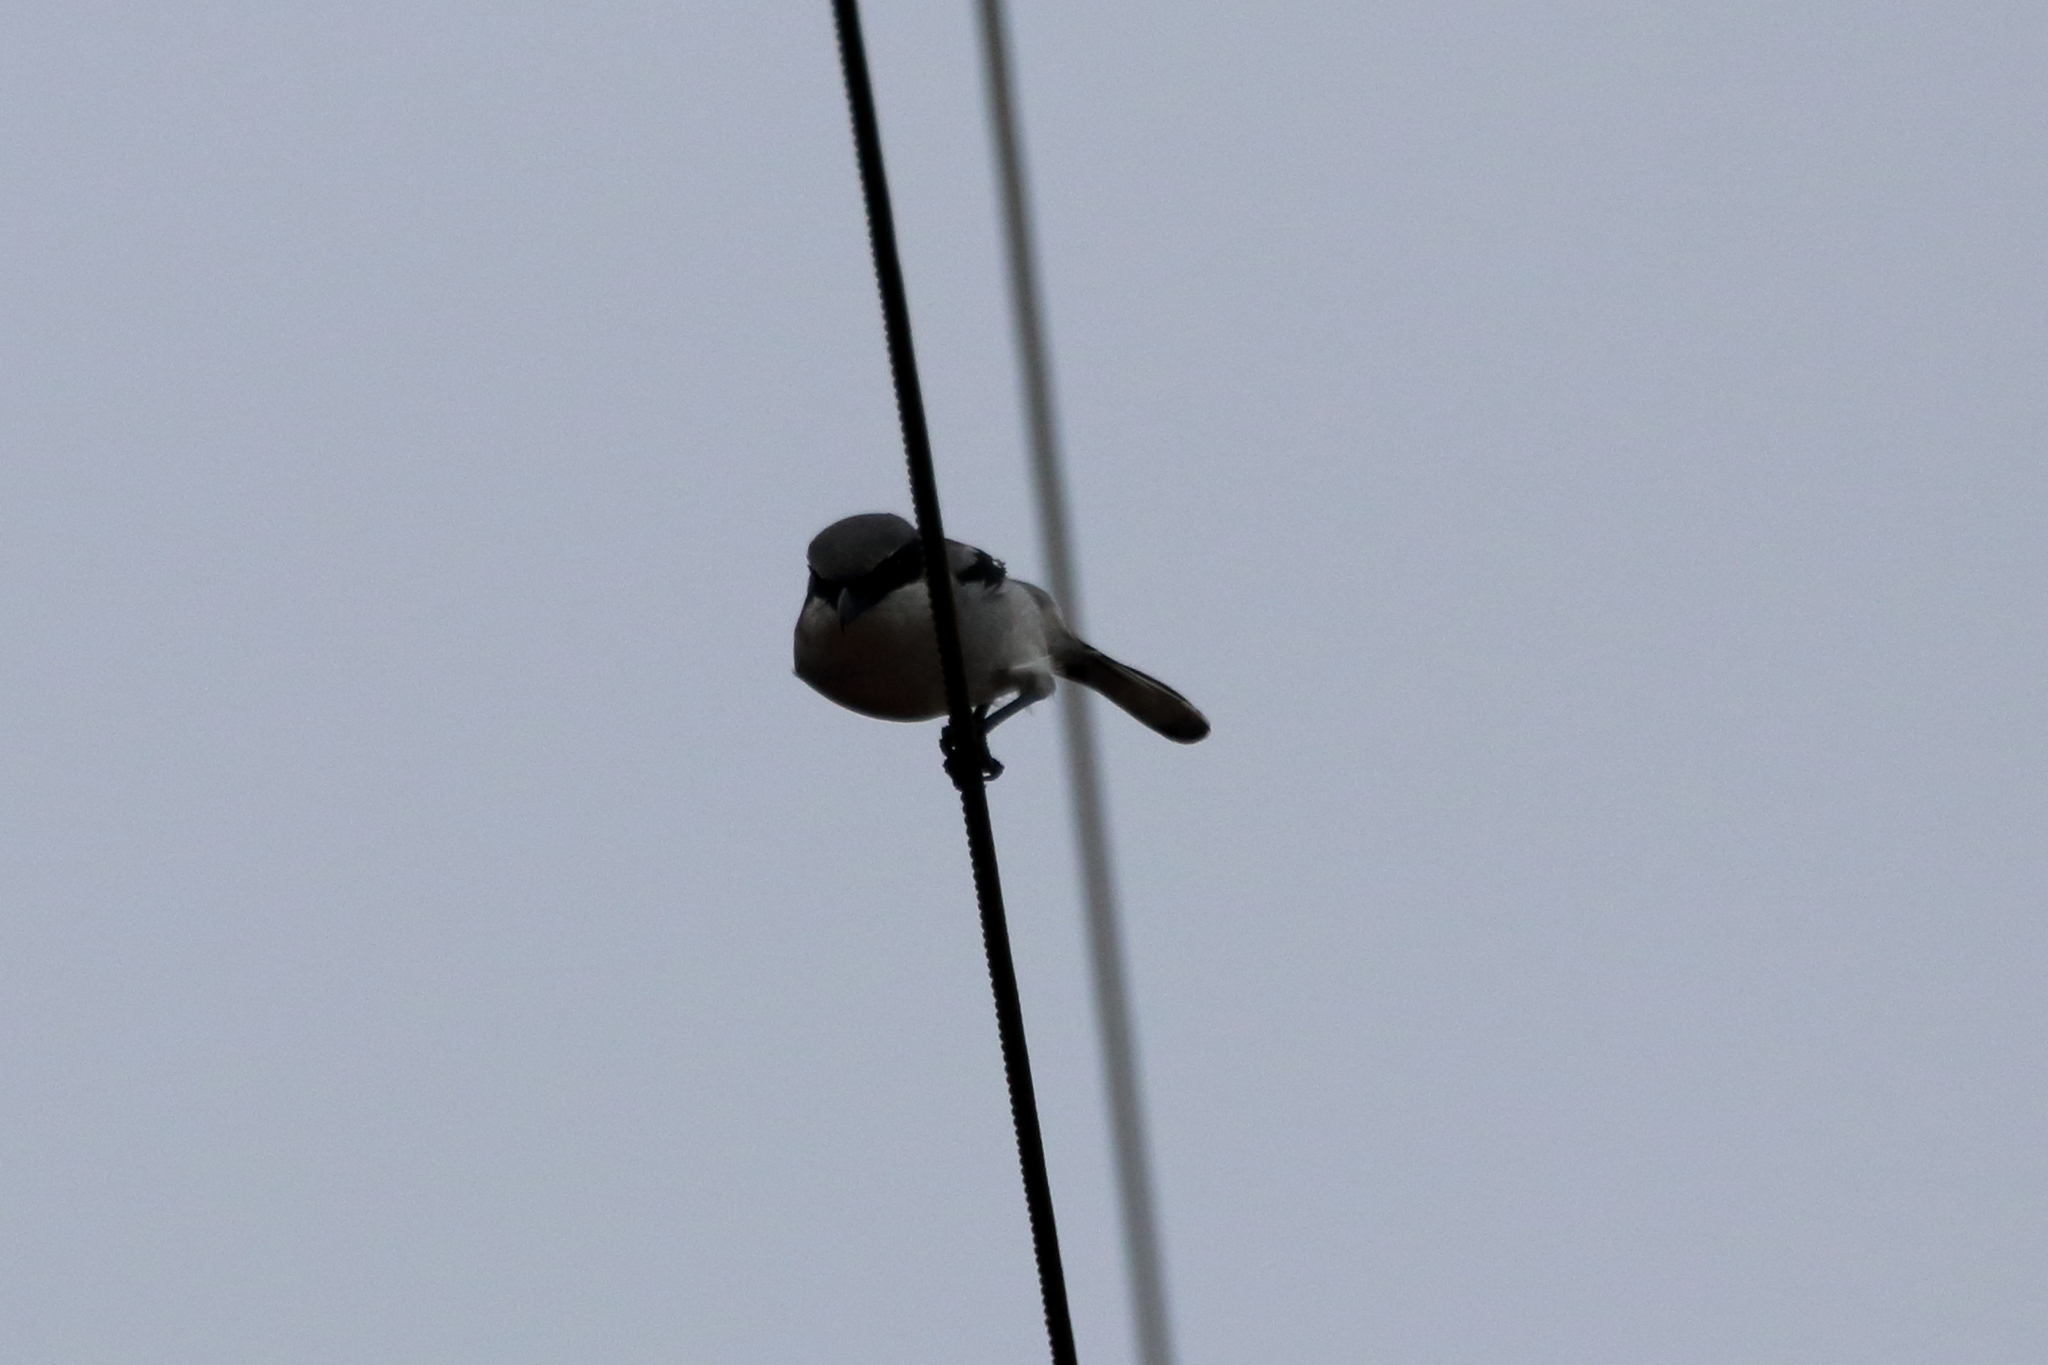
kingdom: Animalia
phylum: Chordata
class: Aves
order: Passeriformes
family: Laniidae
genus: Lanius
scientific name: Lanius ludovicianus
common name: Loggerhead shrike
